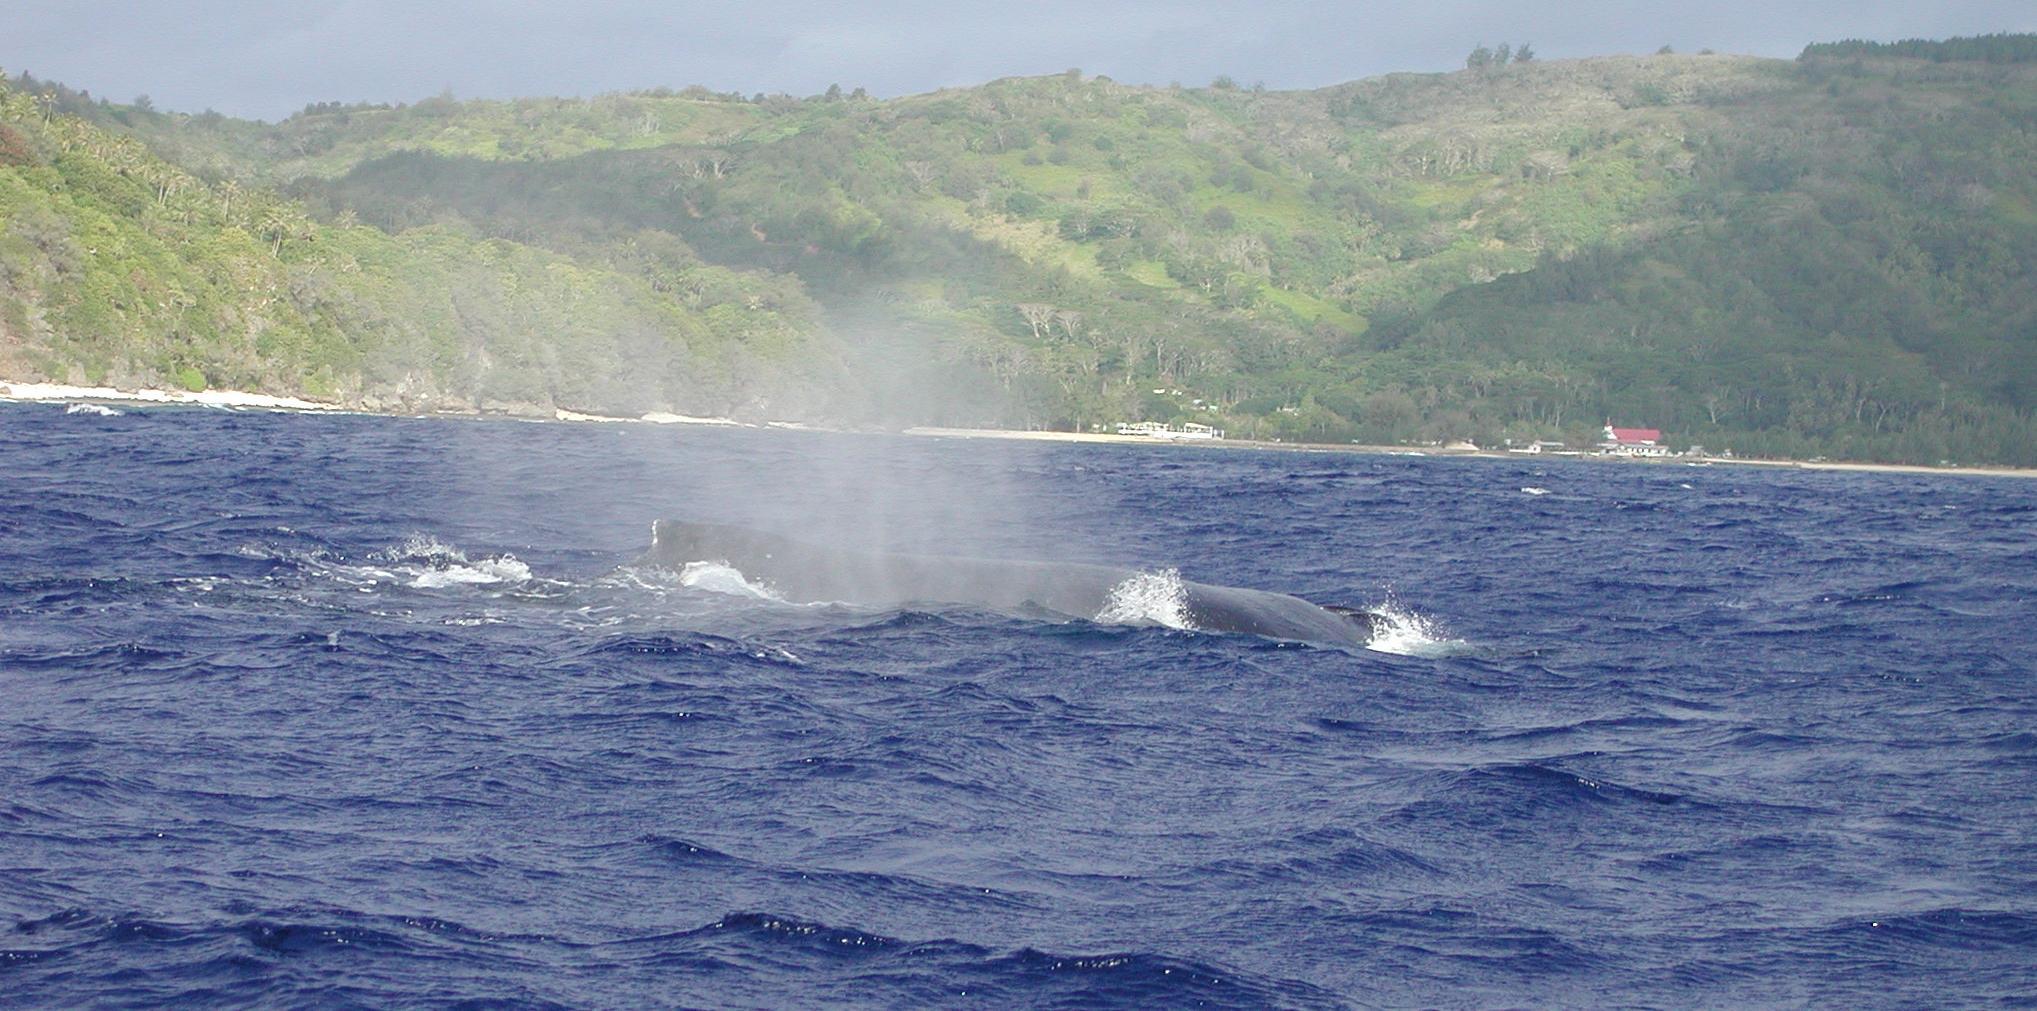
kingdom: Animalia
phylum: Chordata
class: Mammalia
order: Cetacea
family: Balaenopteridae
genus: Megaptera
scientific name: Megaptera novaeangliae
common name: Humpback whale
